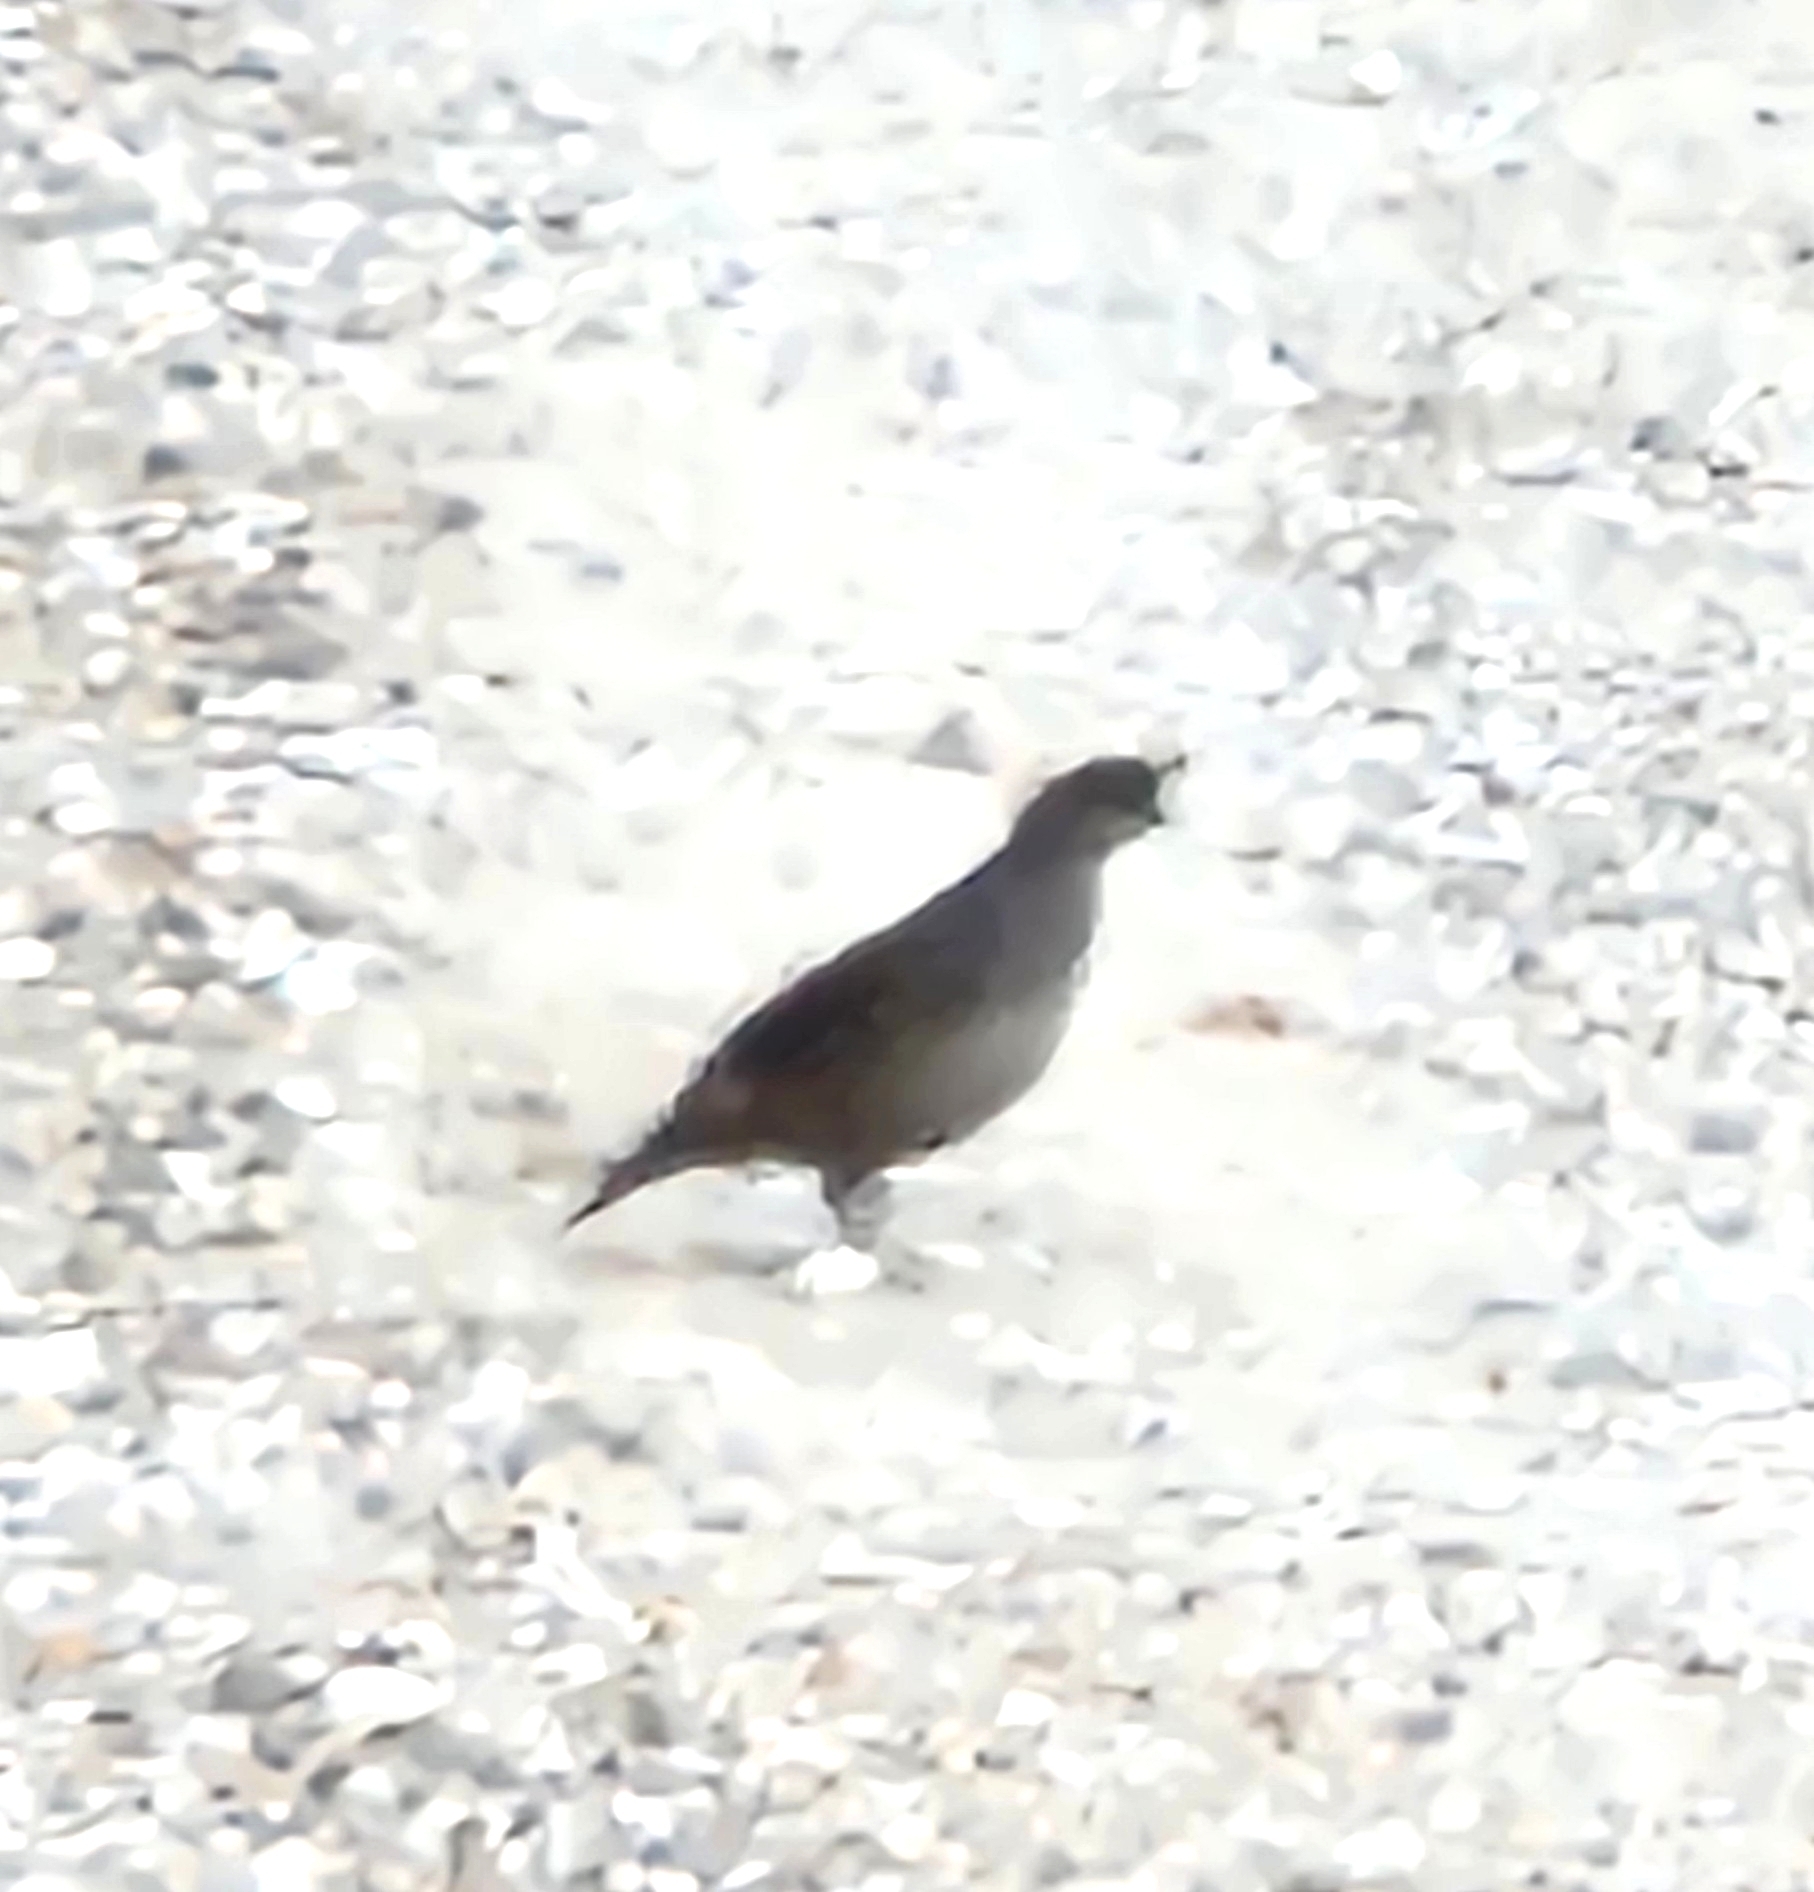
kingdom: Animalia
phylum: Chordata
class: Aves
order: Galliformes
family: Odontophoridae
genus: Callipepla
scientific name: Callipepla californica
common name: California quail
